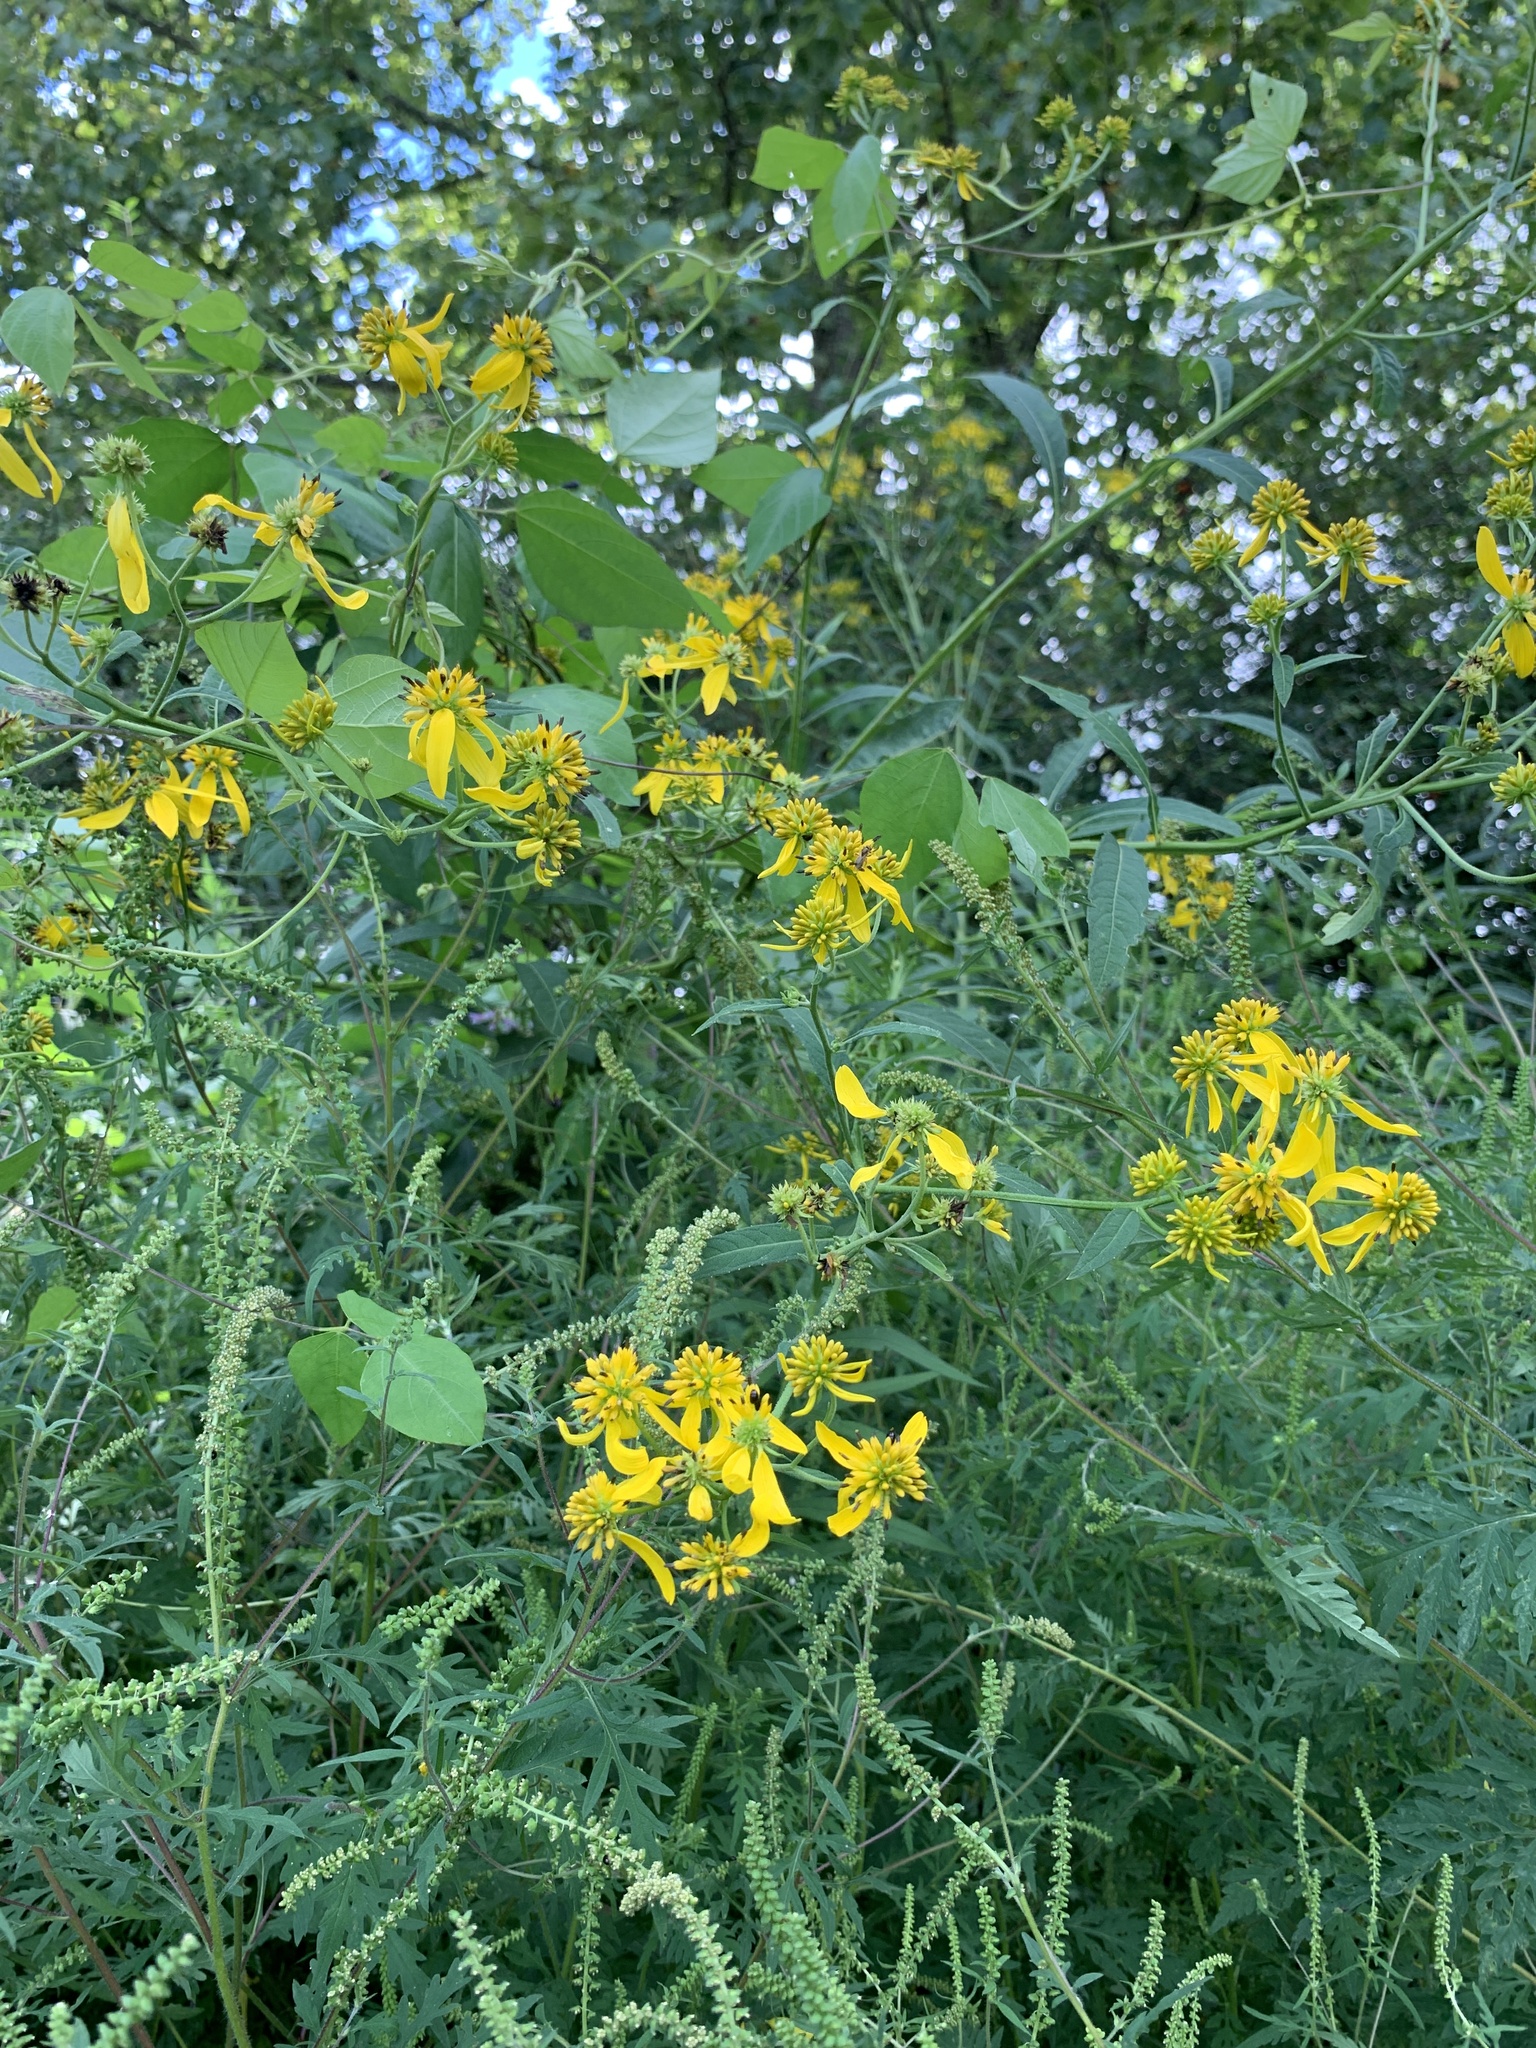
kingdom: Plantae
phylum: Tracheophyta
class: Magnoliopsida
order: Asterales
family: Asteraceae
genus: Verbesina
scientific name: Verbesina alternifolia
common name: Wingstem
